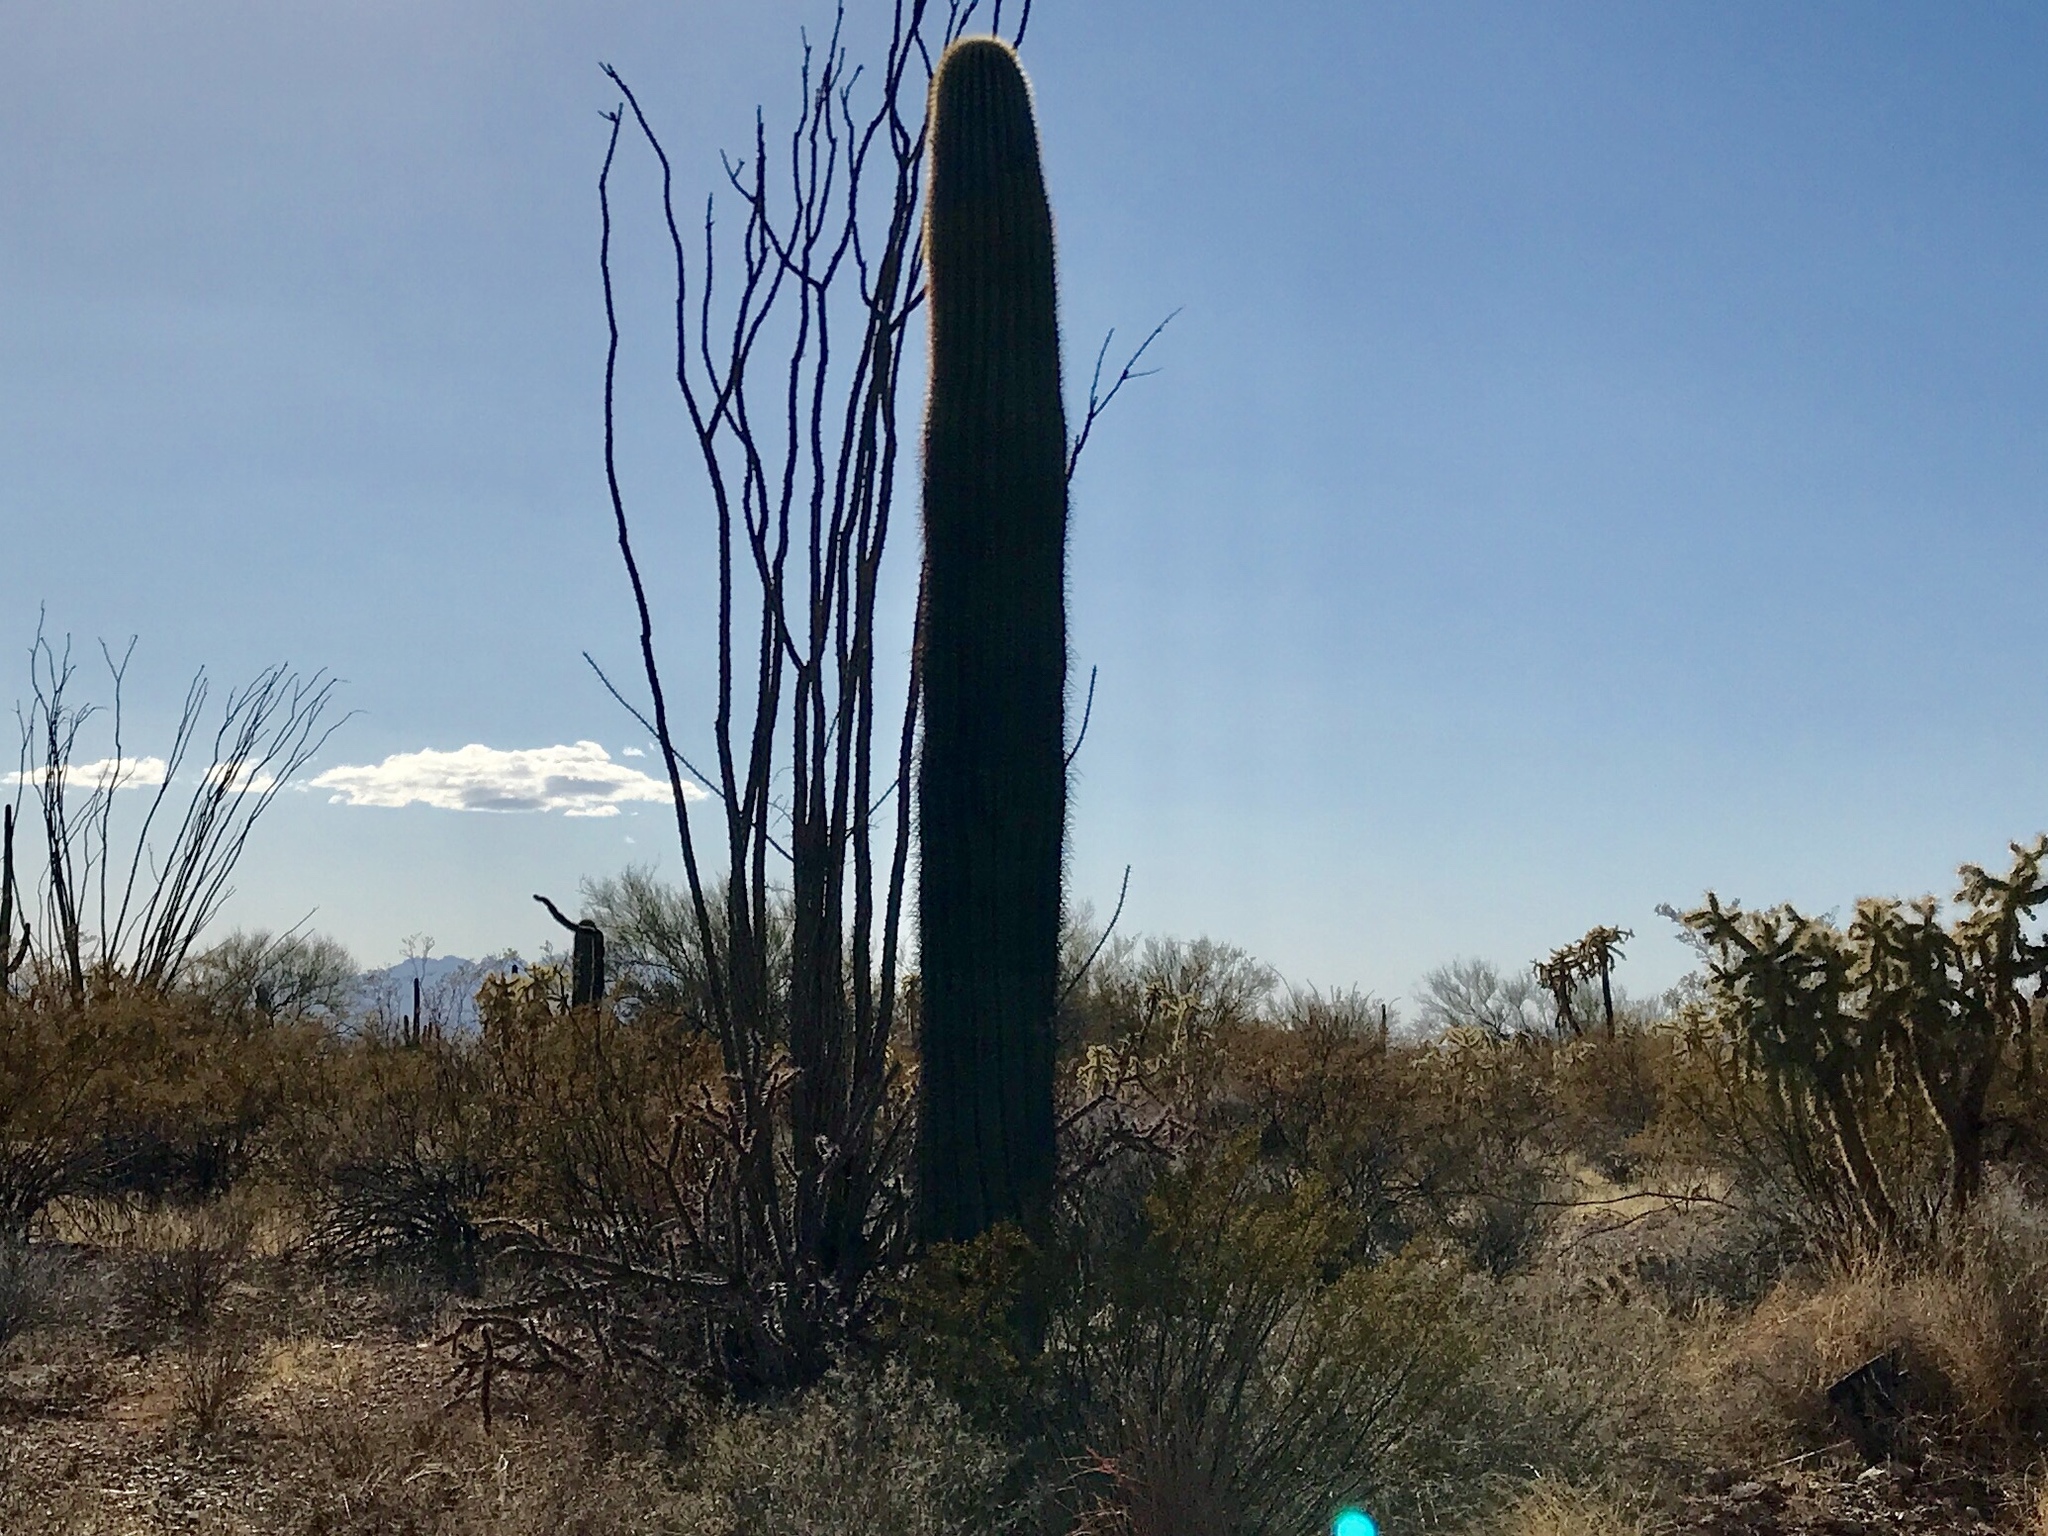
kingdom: Plantae
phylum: Tracheophyta
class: Magnoliopsida
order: Ericales
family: Fouquieriaceae
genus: Fouquieria
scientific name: Fouquieria splendens
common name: Vine-cactus
